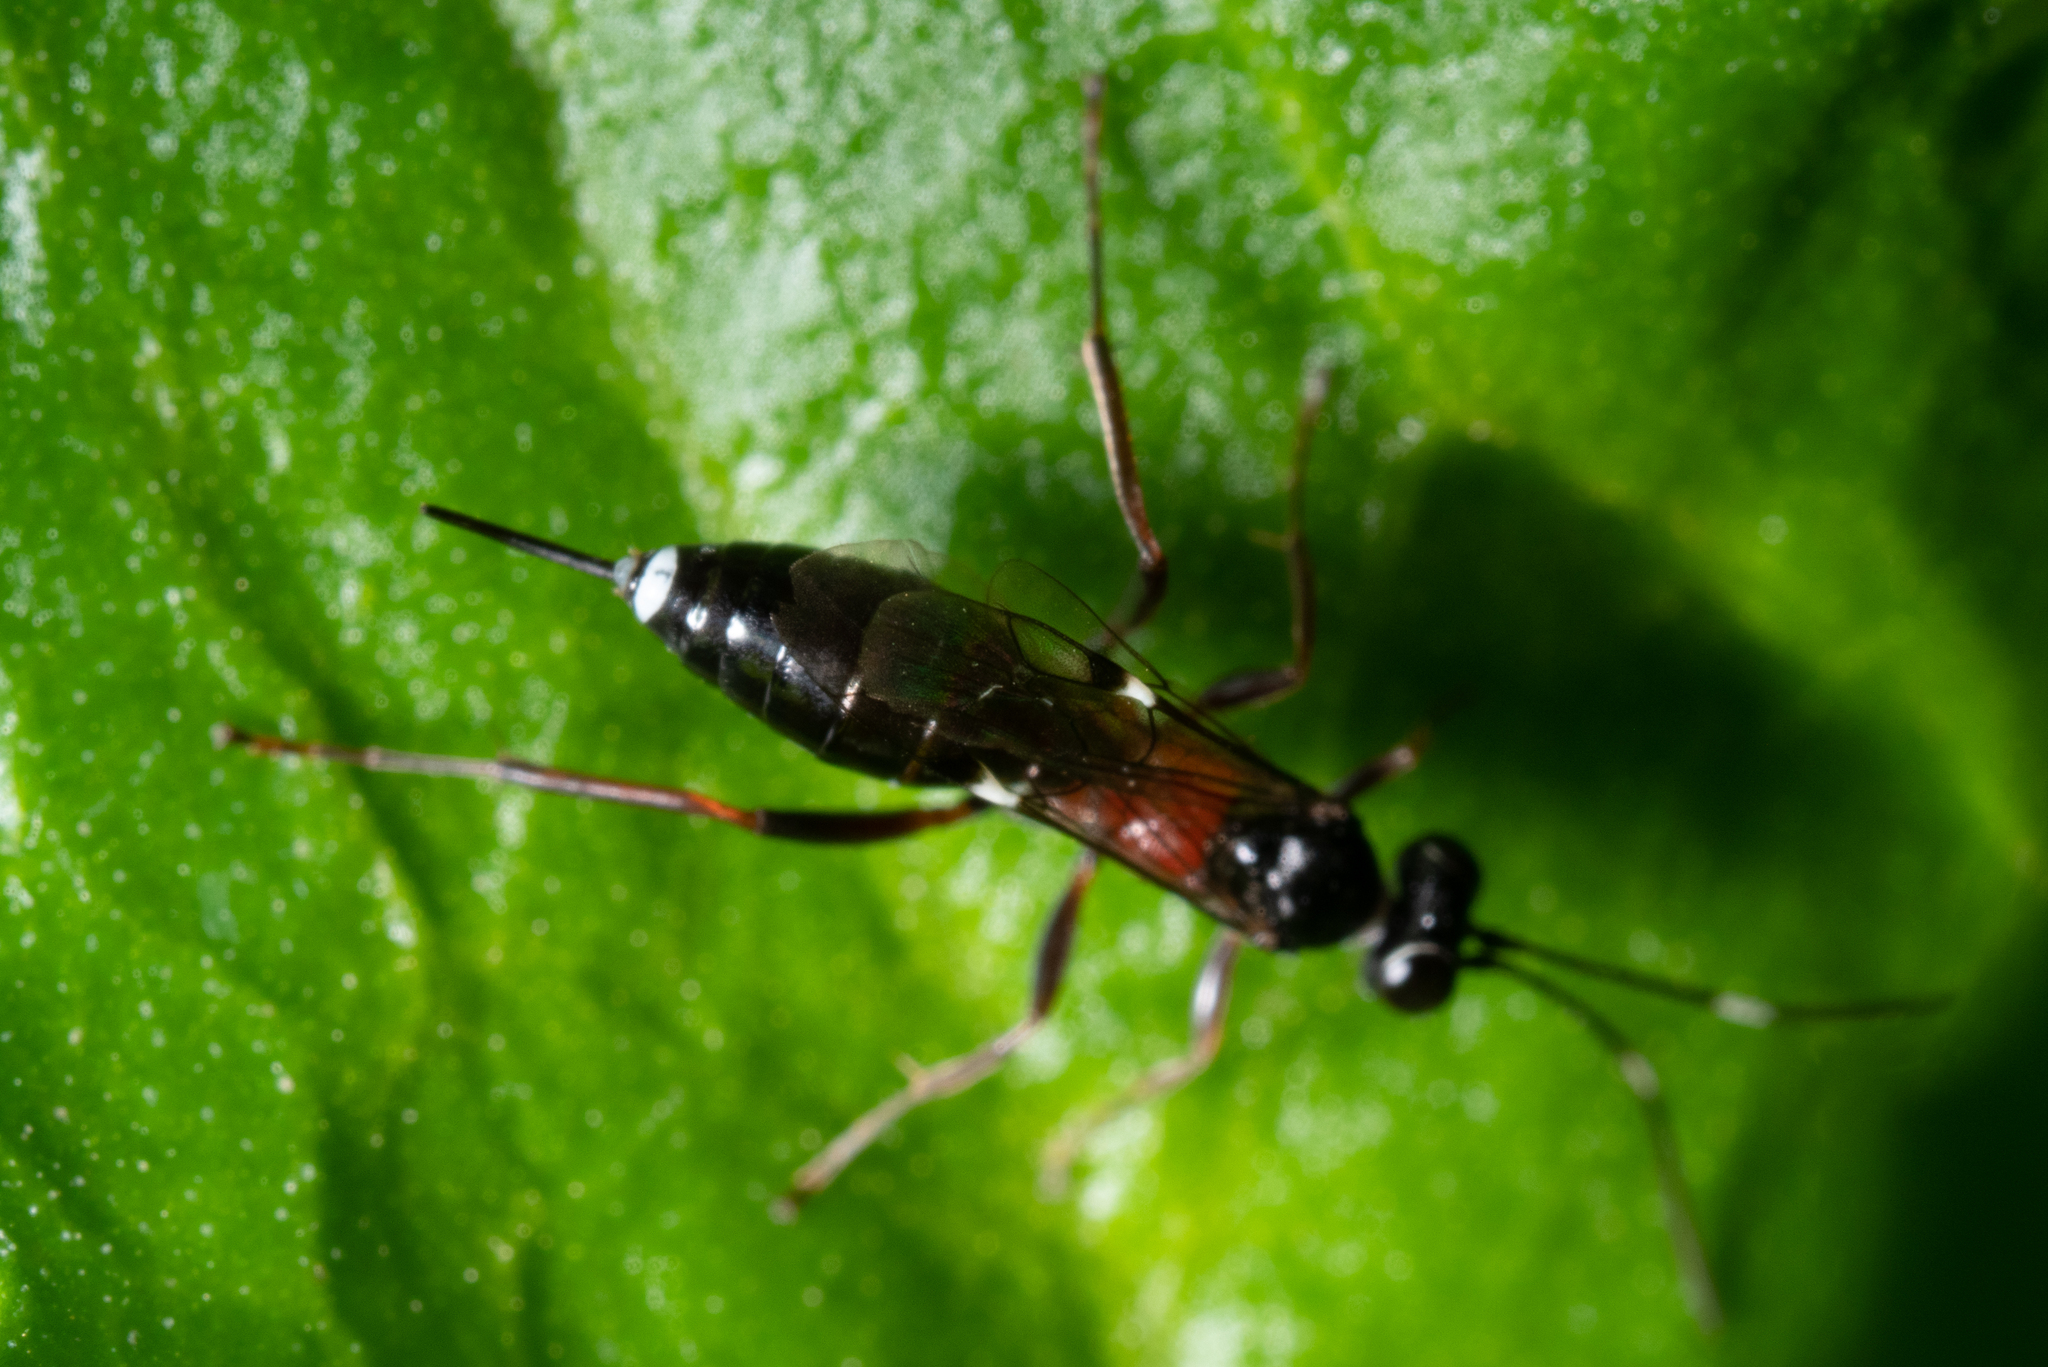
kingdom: Animalia
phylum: Arthropoda
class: Insecta
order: Hymenoptera
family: Ichneumonidae
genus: Anacis
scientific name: Anacis
